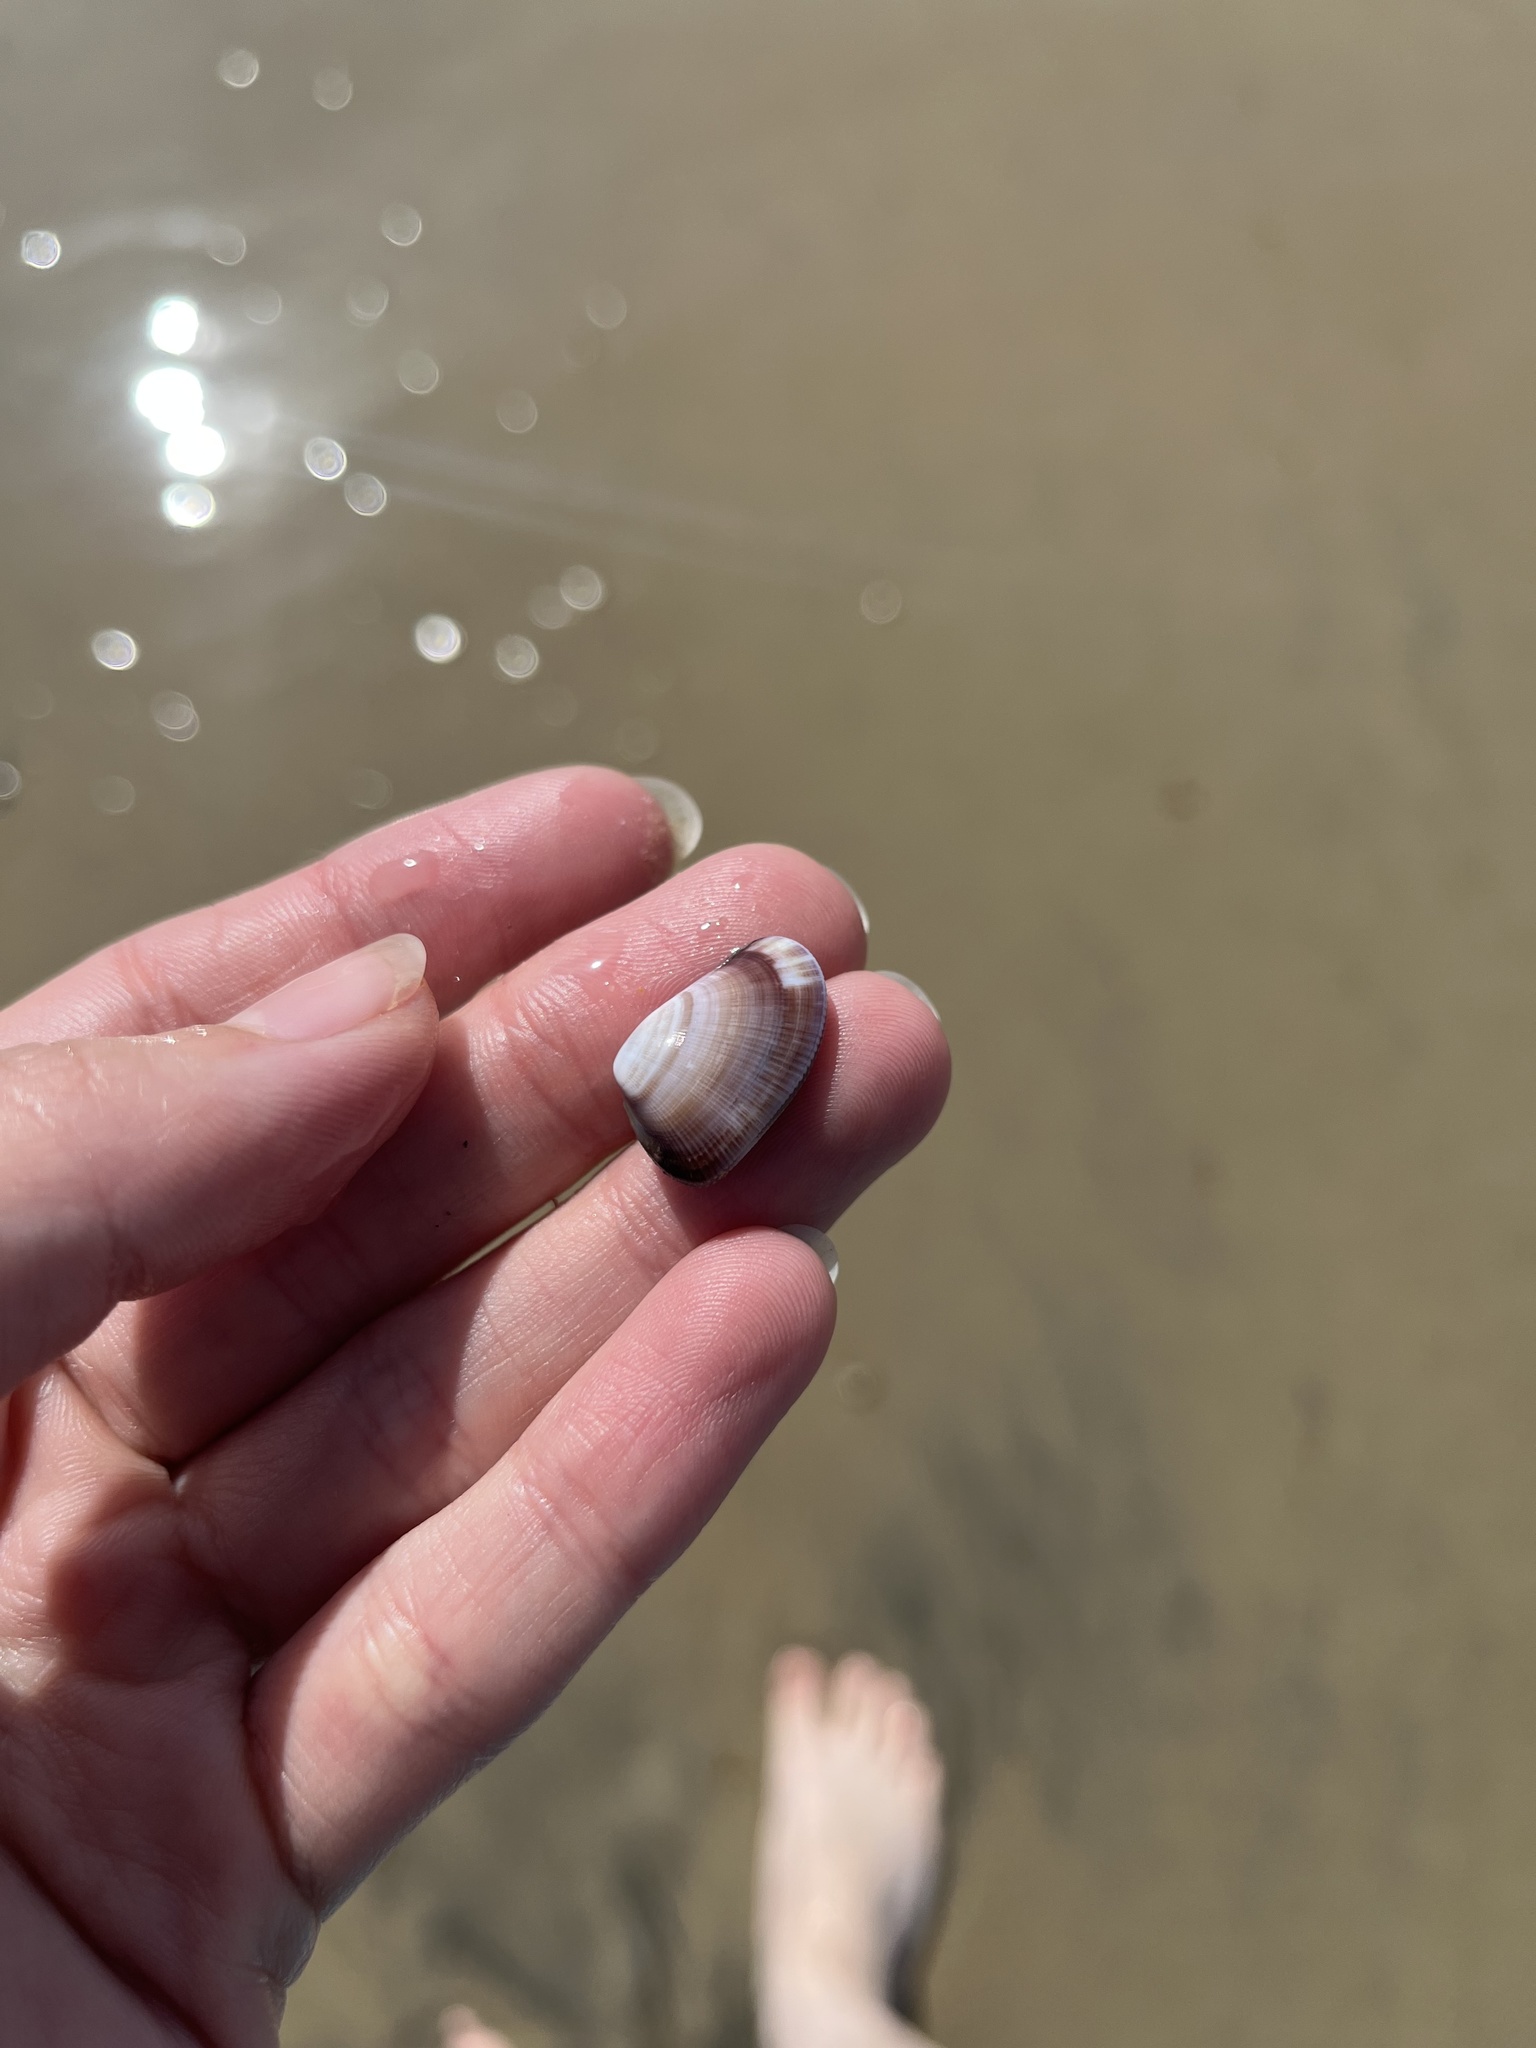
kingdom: Animalia
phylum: Mollusca
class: Bivalvia
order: Cardiida
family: Donacidae
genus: Donax
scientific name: Donax gouldii
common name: Gould beanclam
